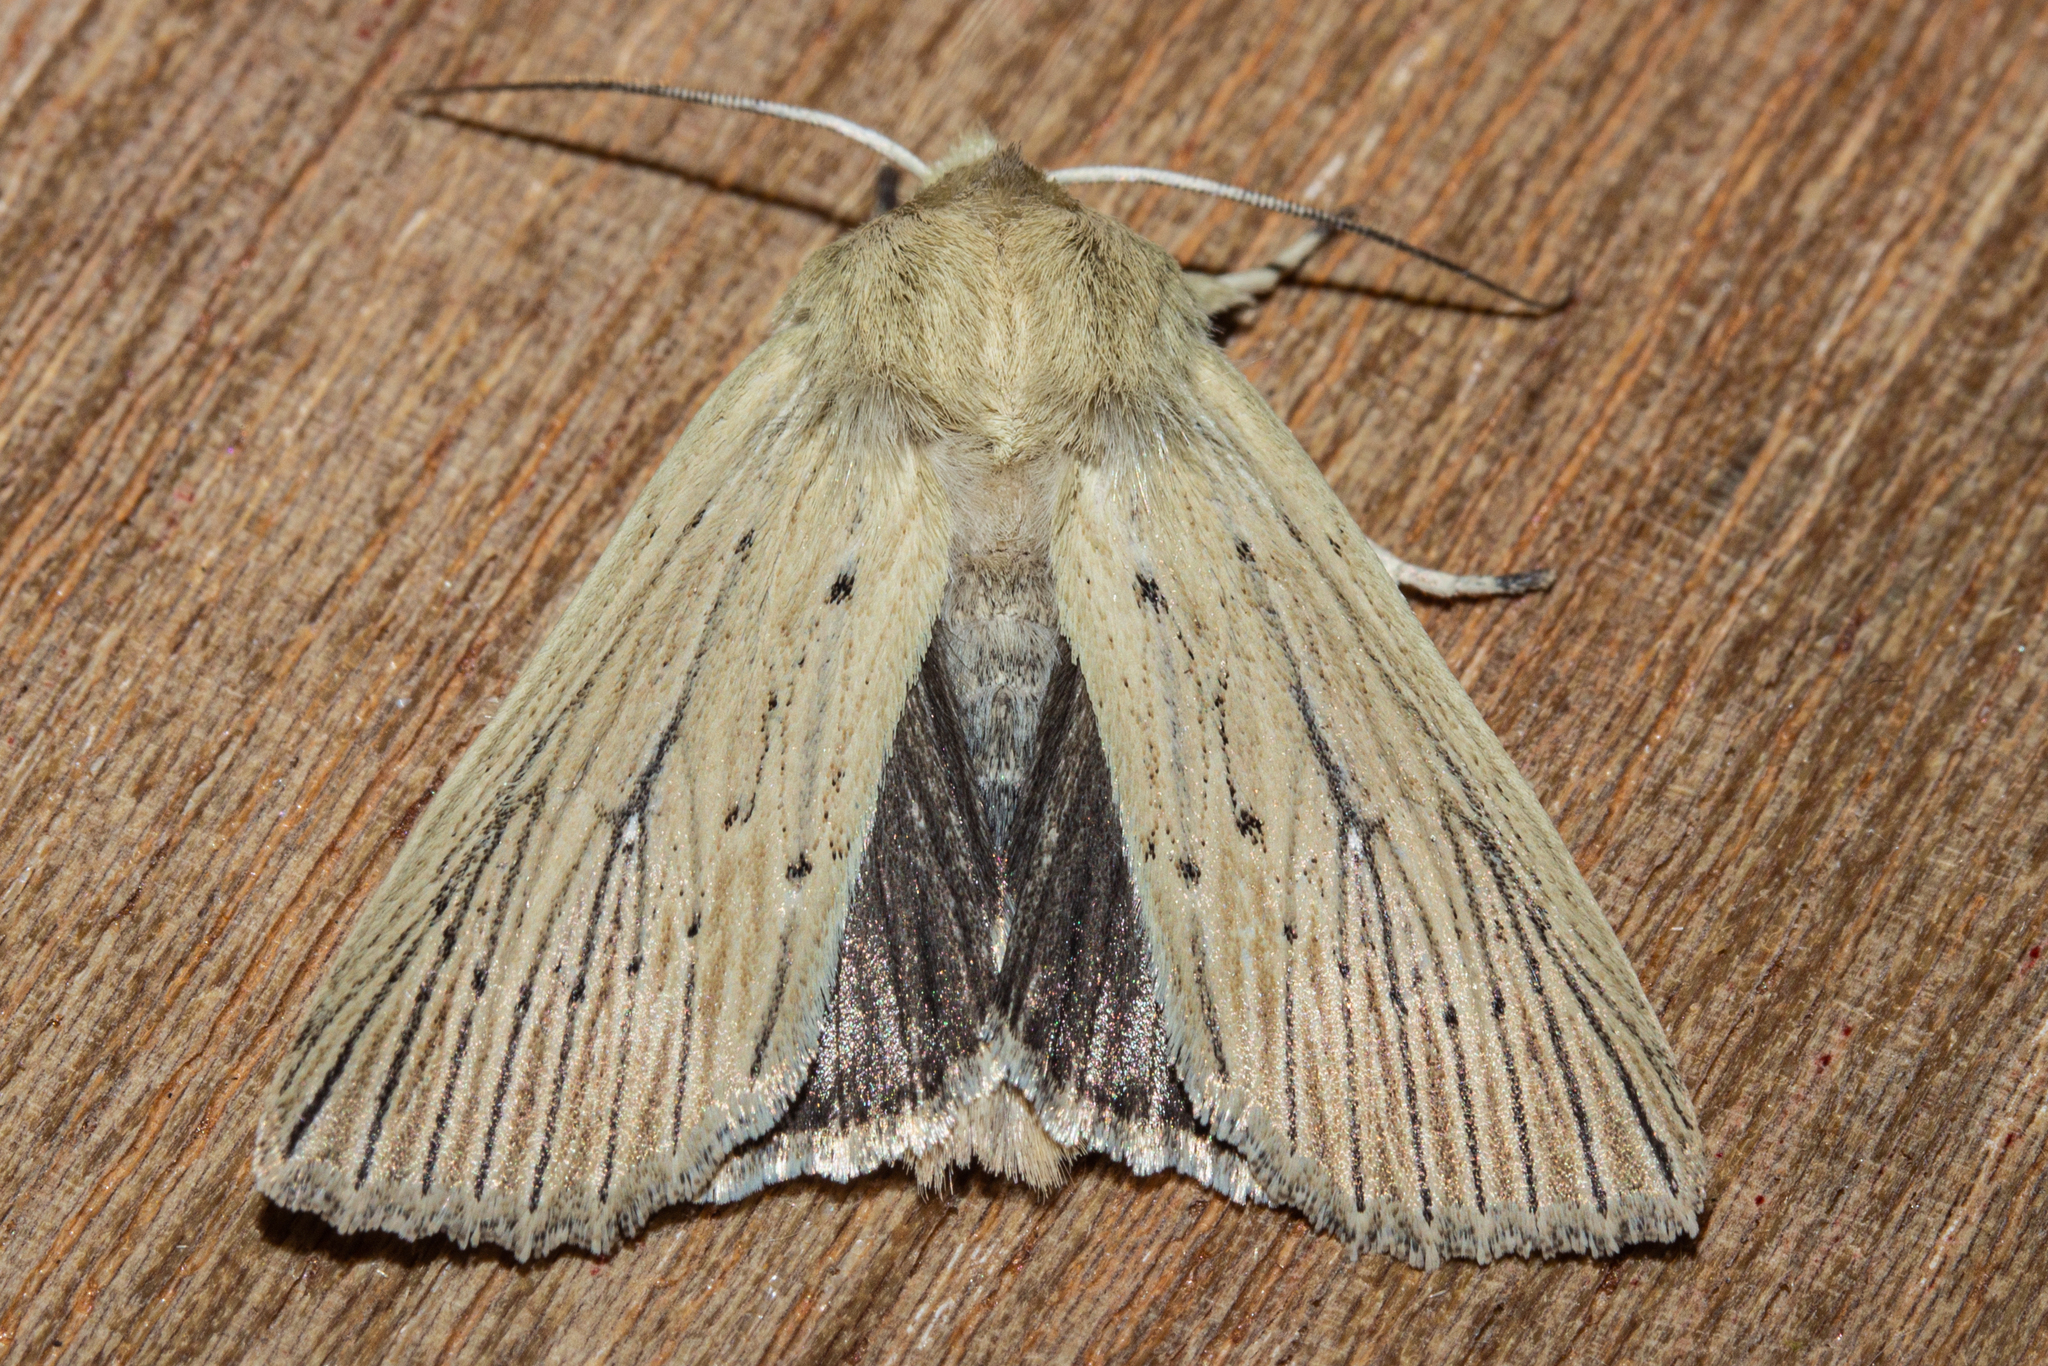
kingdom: Animalia
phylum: Arthropoda
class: Insecta
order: Lepidoptera
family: Noctuidae
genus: Ichneutica
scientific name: Ichneutica arotis
